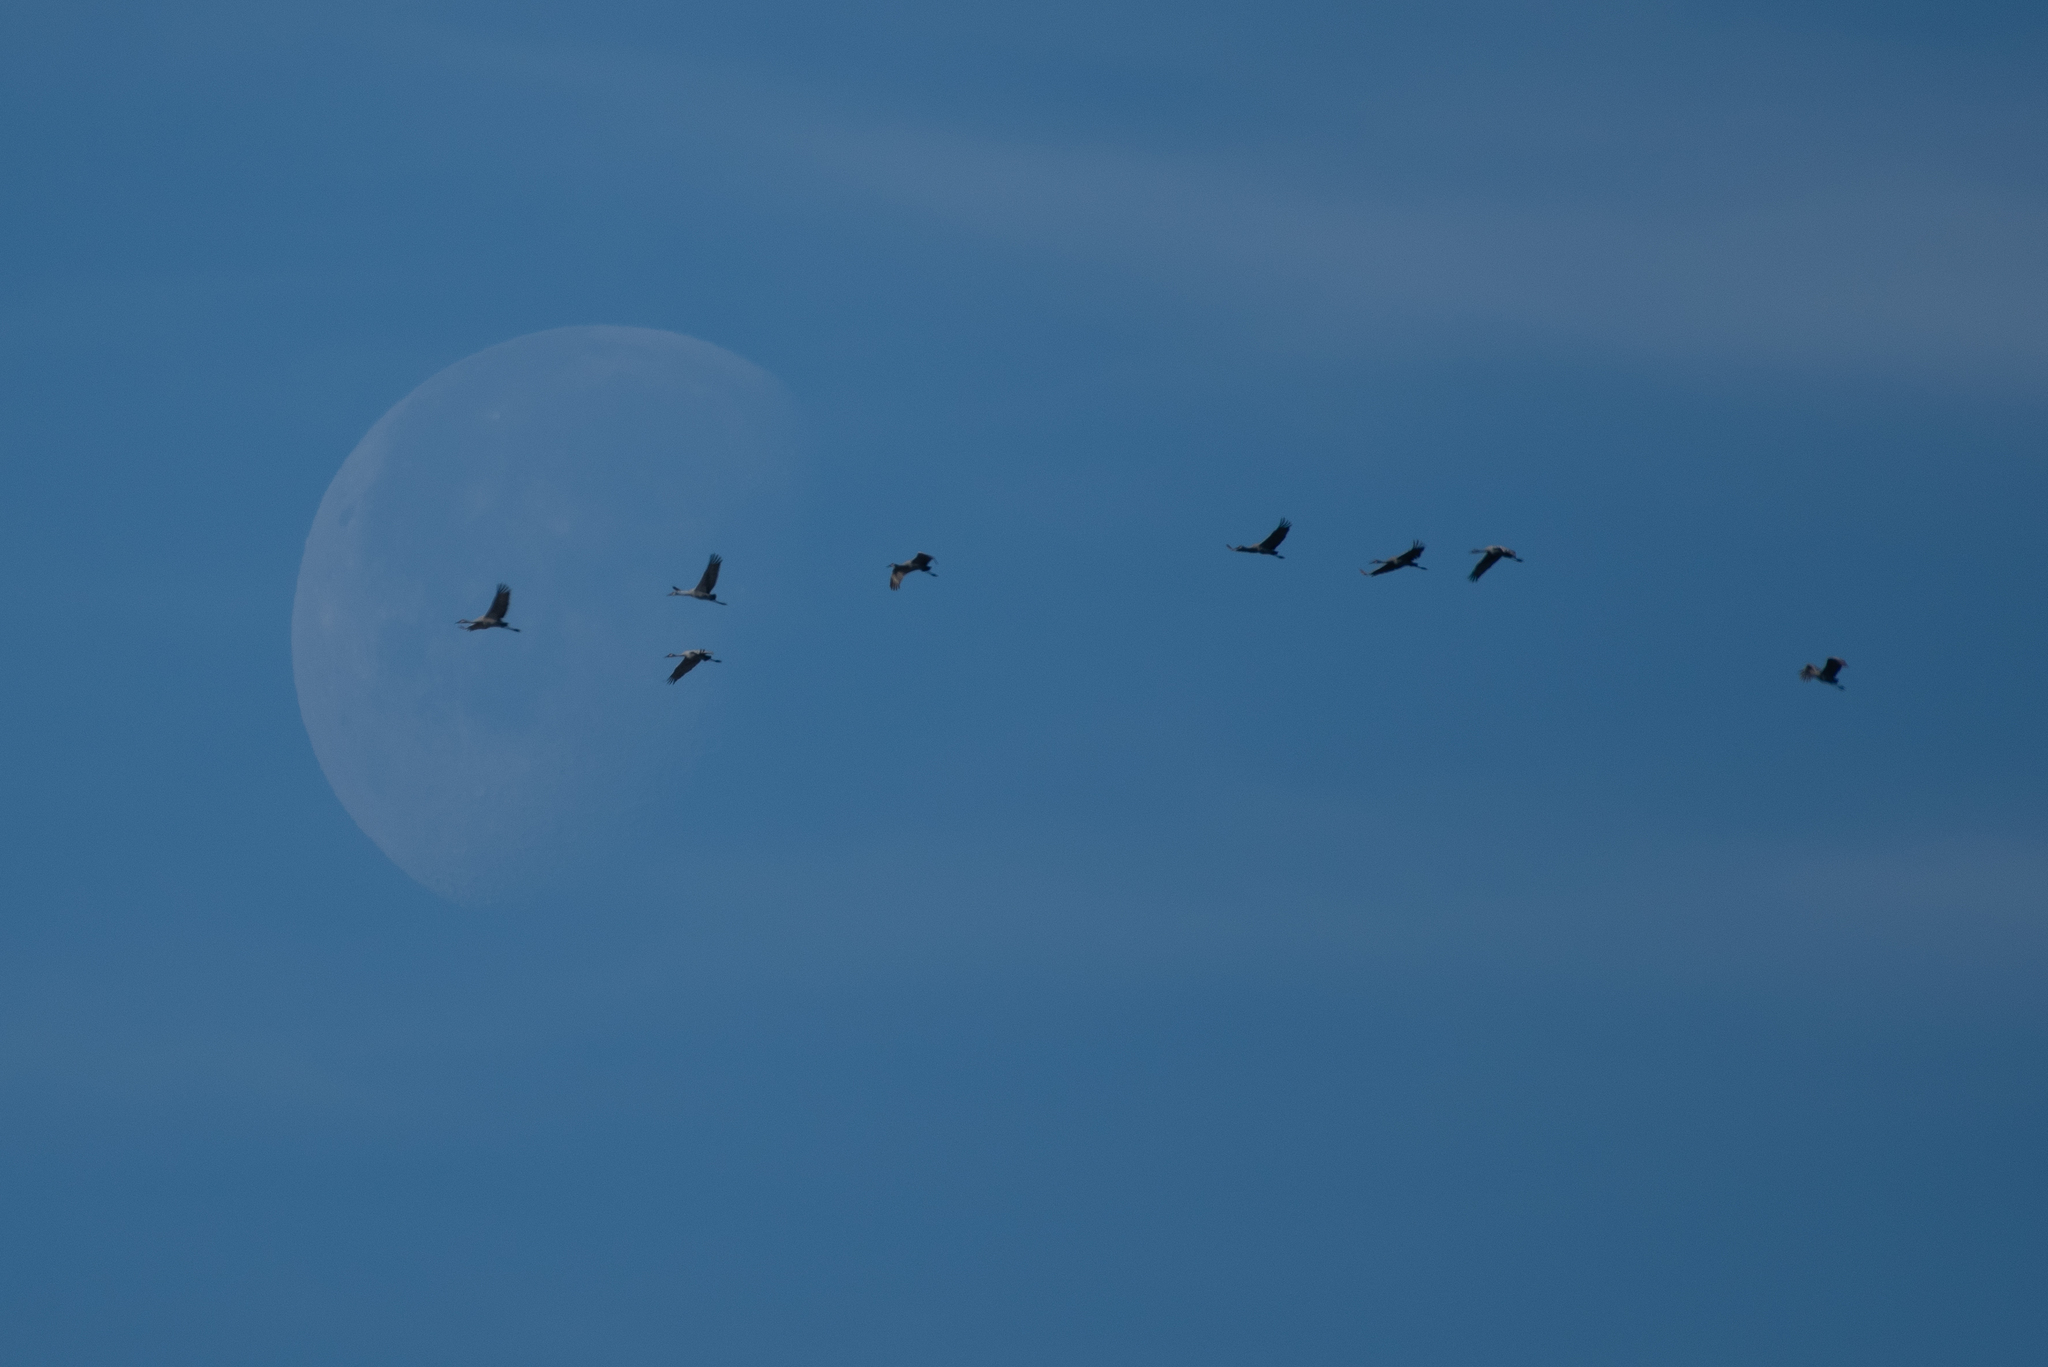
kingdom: Animalia
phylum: Chordata
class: Aves
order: Gruiformes
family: Gruidae
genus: Grus
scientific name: Grus canadensis
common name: Sandhill crane
